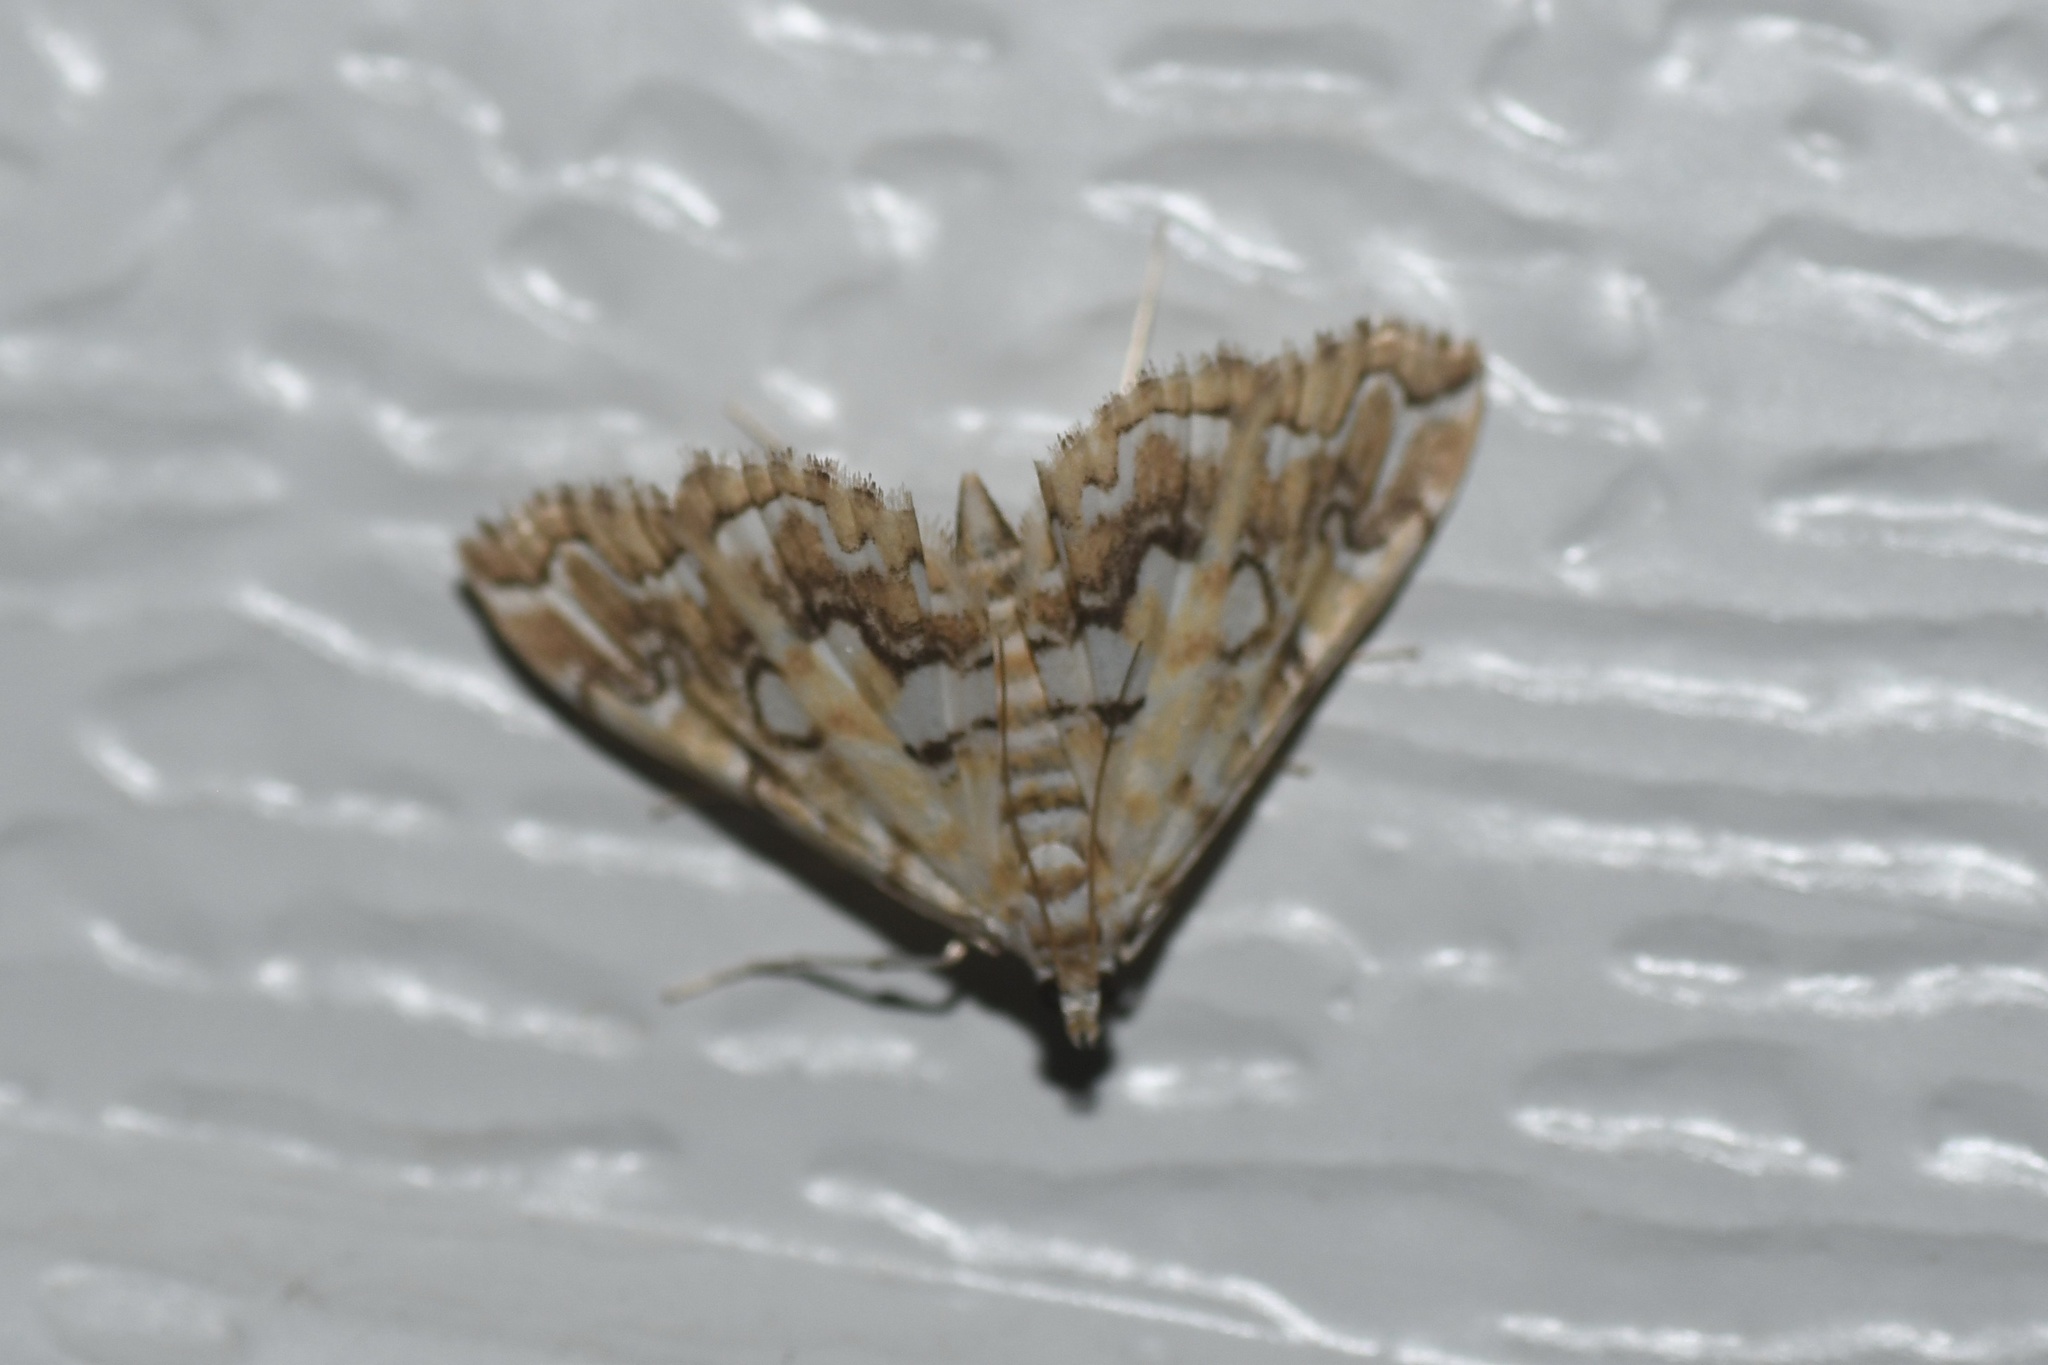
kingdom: Animalia
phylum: Arthropoda
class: Insecta
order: Lepidoptera
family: Crambidae
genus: Elophila
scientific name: Elophila icciusalis
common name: Pondside pyralid moth
